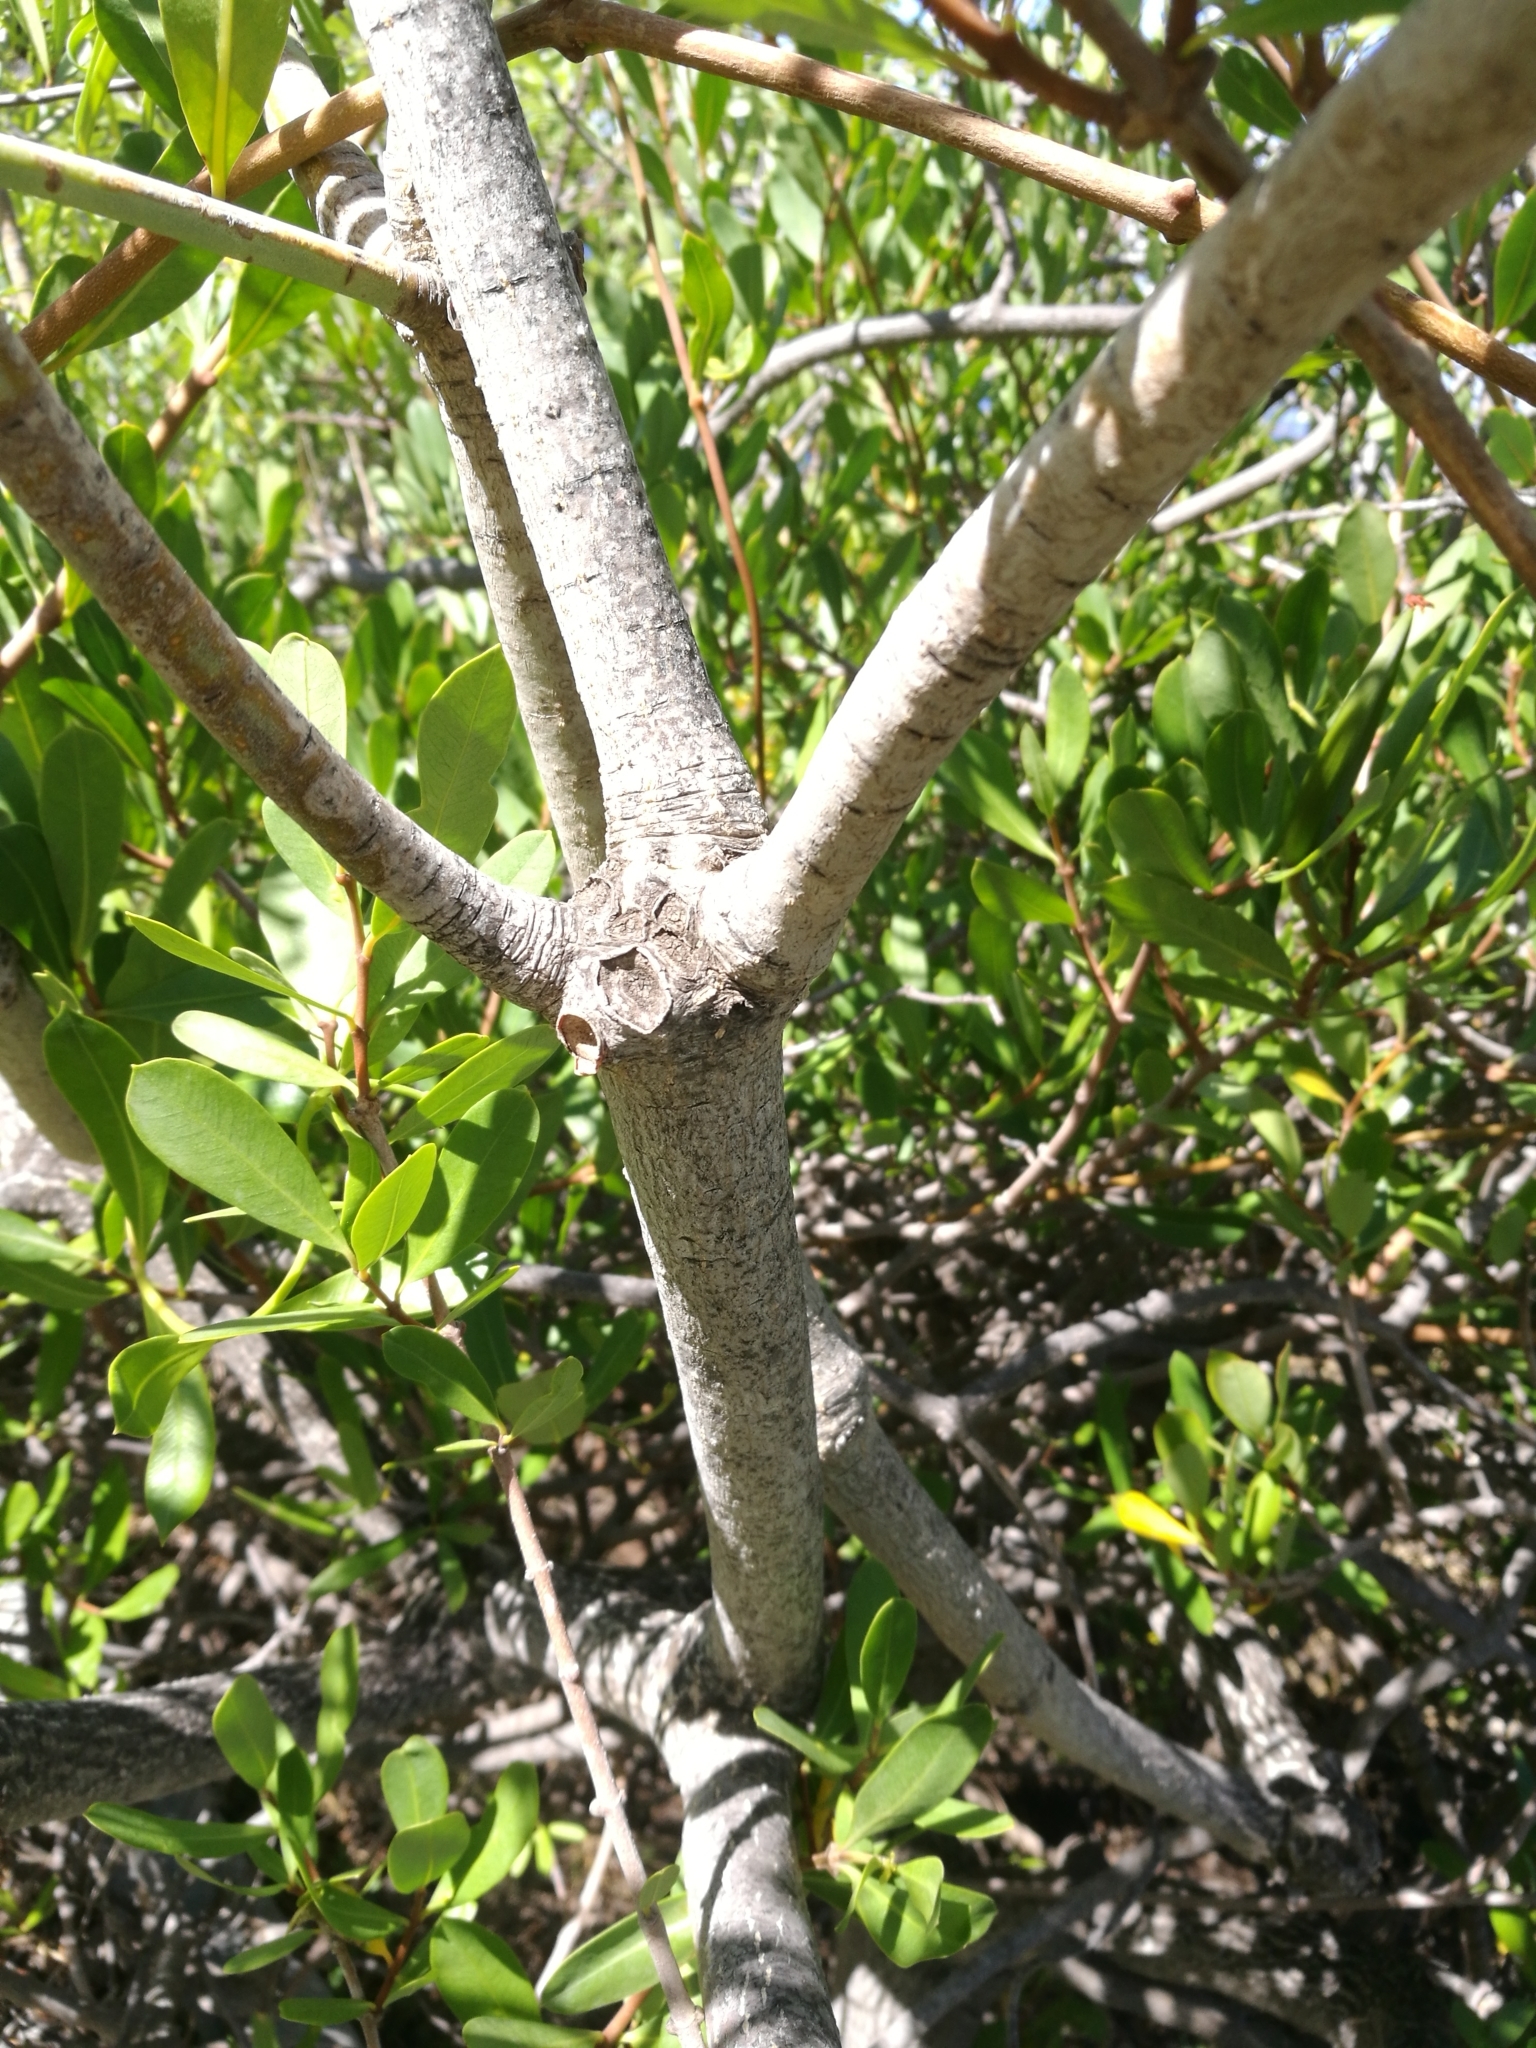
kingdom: Plantae
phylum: Tracheophyta
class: Magnoliopsida
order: Malpighiales
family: Euphorbiaceae
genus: Euphorbia
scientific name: Euphorbia lamarckii
